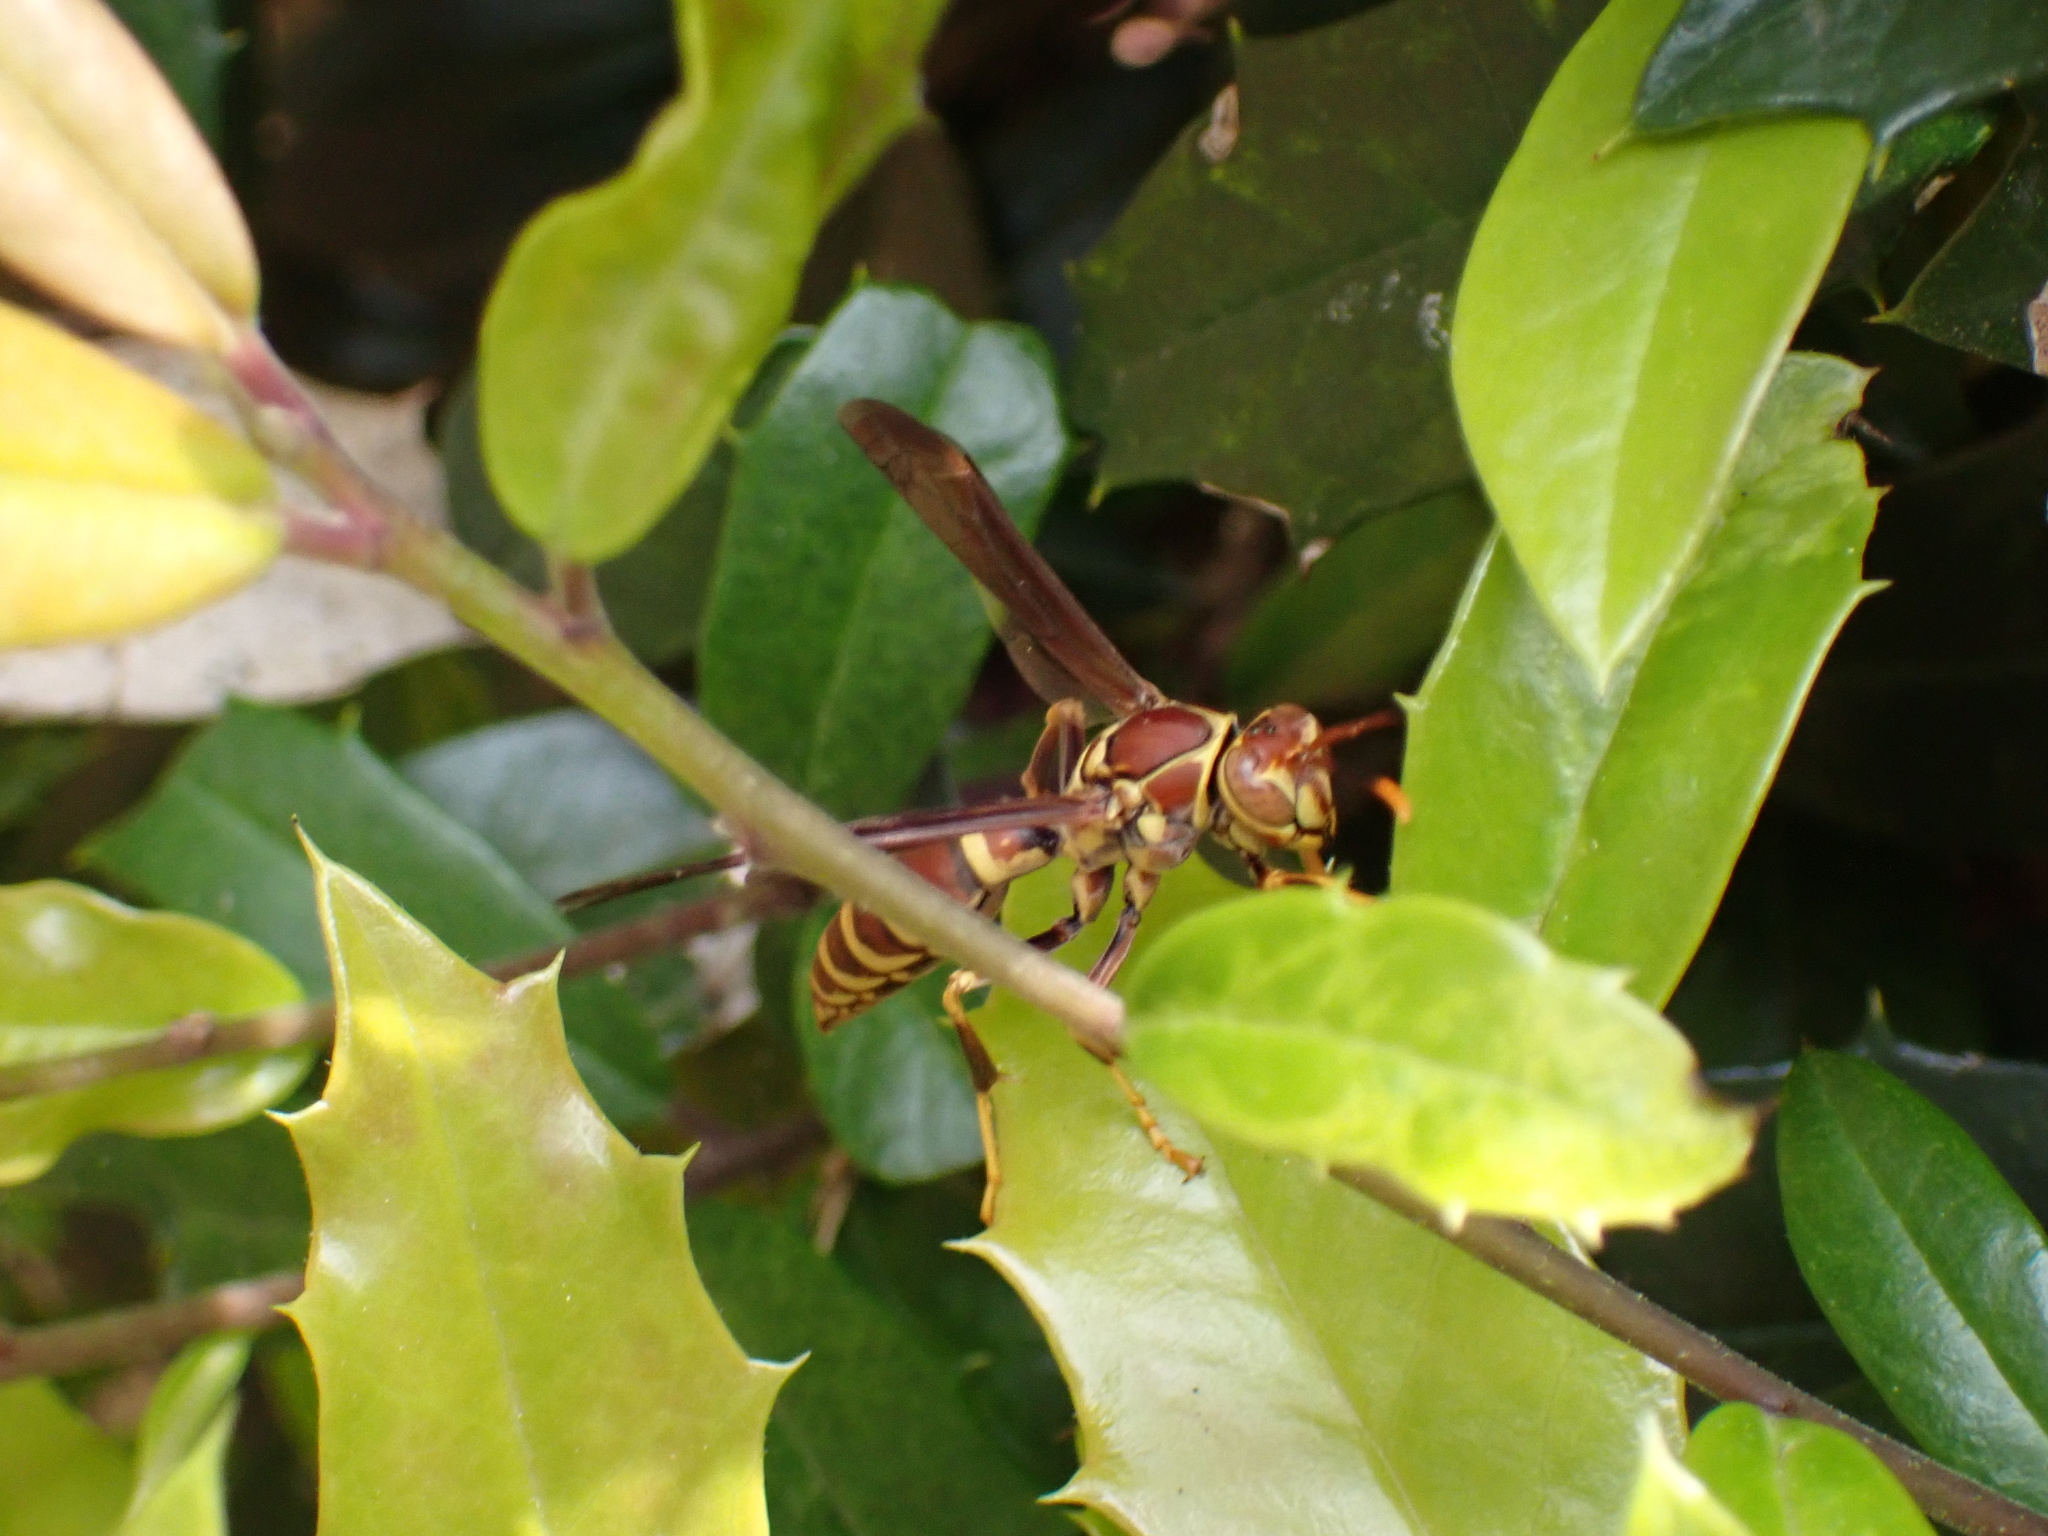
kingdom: Animalia
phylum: Arthropoda
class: Insecta
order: Hymenoptera
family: Eumenidae
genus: Polistes
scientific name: Polistes exclamans
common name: Paper wasp
